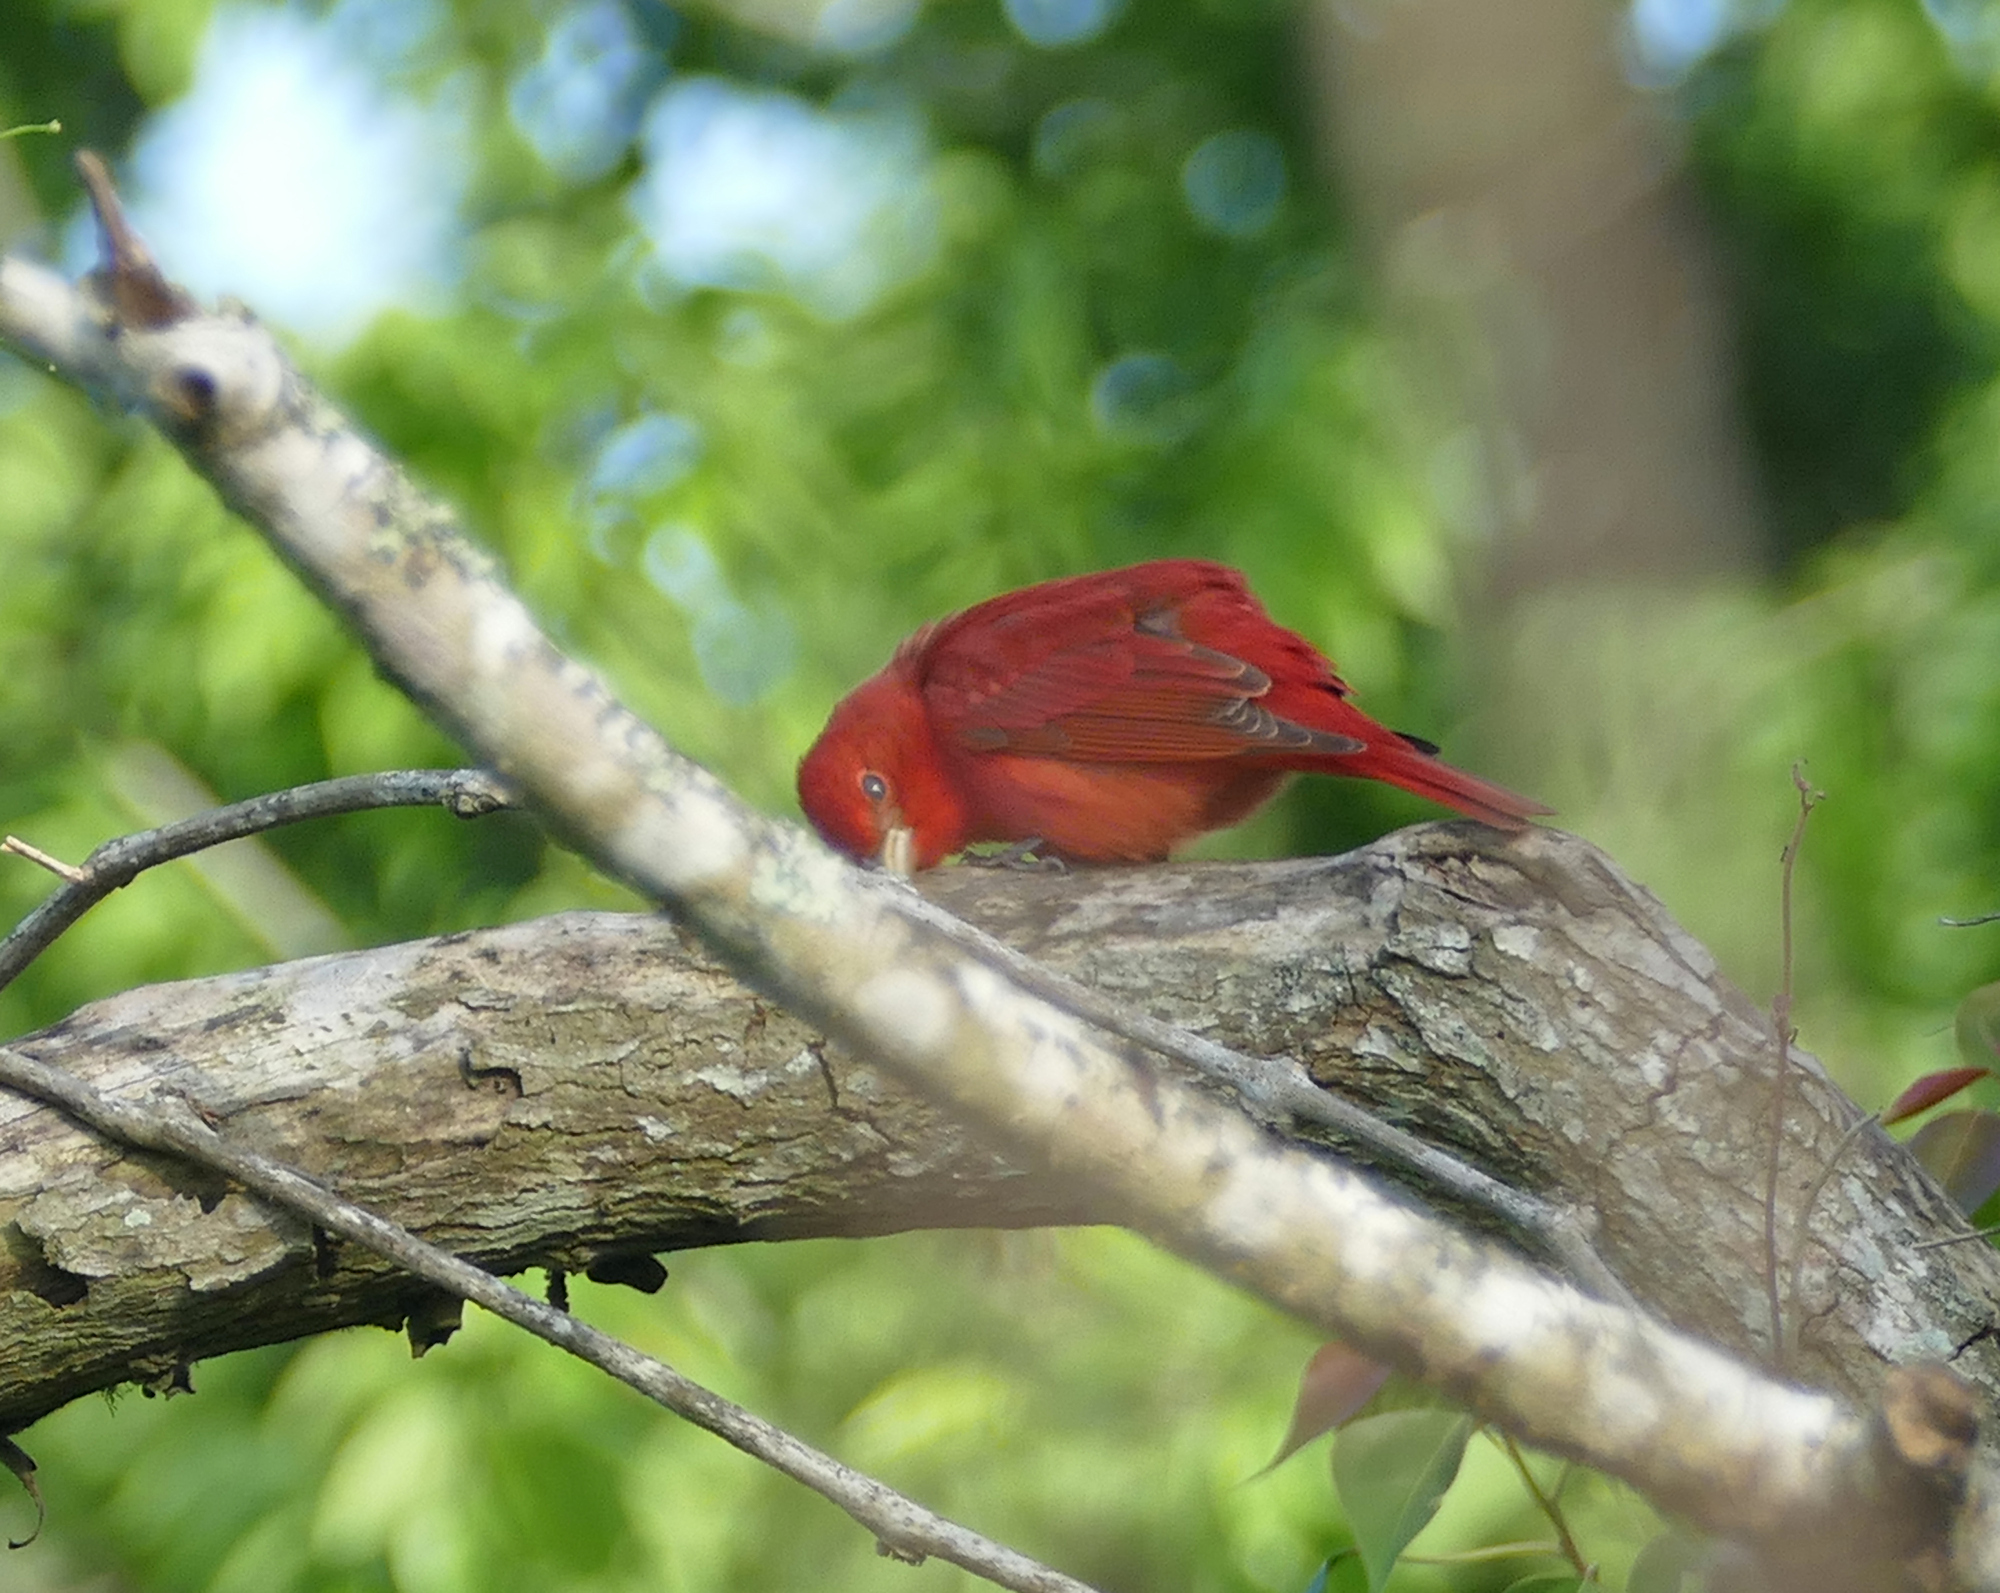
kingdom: Animalia
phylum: Chordata
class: Aves
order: Passeriformes
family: Cardinalidae
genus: Piranga
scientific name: Piranga rubra
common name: Summer tanager
